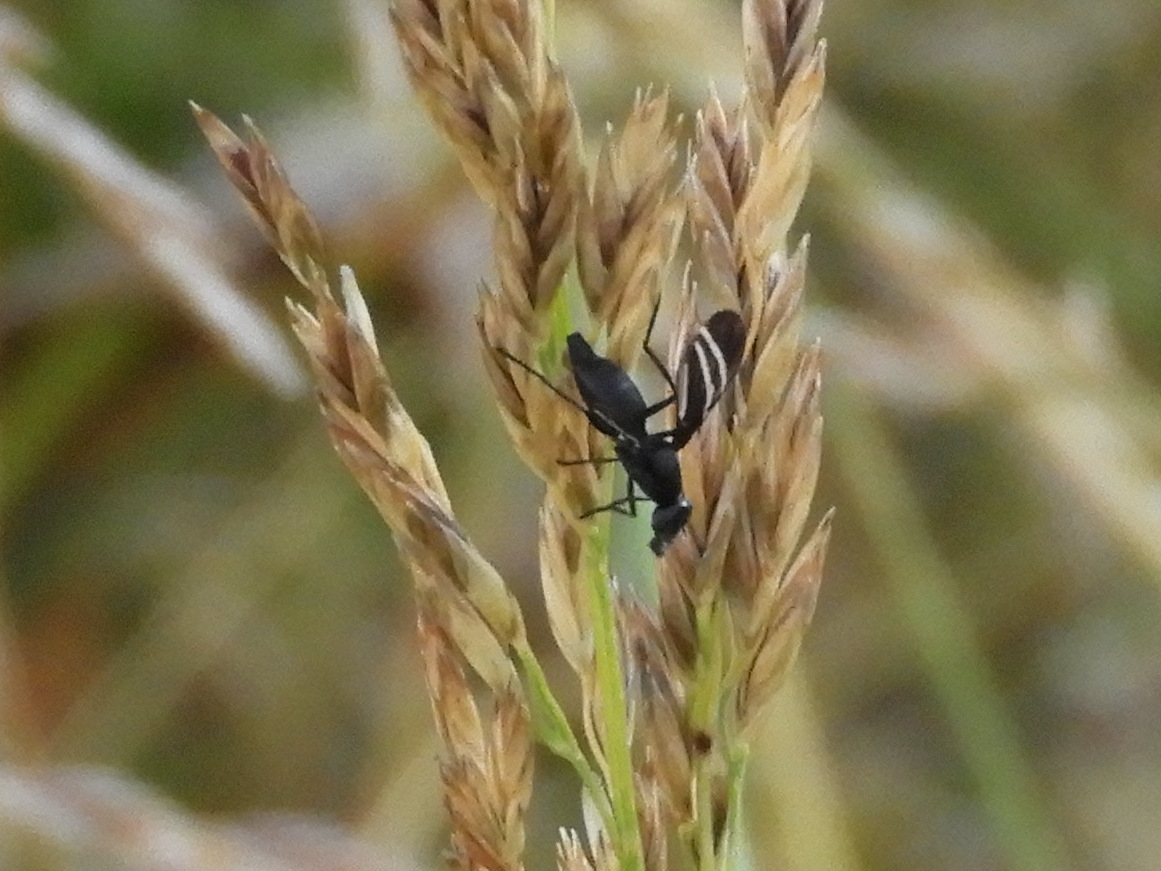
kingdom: Animalia
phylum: Arthropoda
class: Insecta
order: Diptera
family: Ulidiidae
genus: Tritoxa
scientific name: Tritoxa flexa
